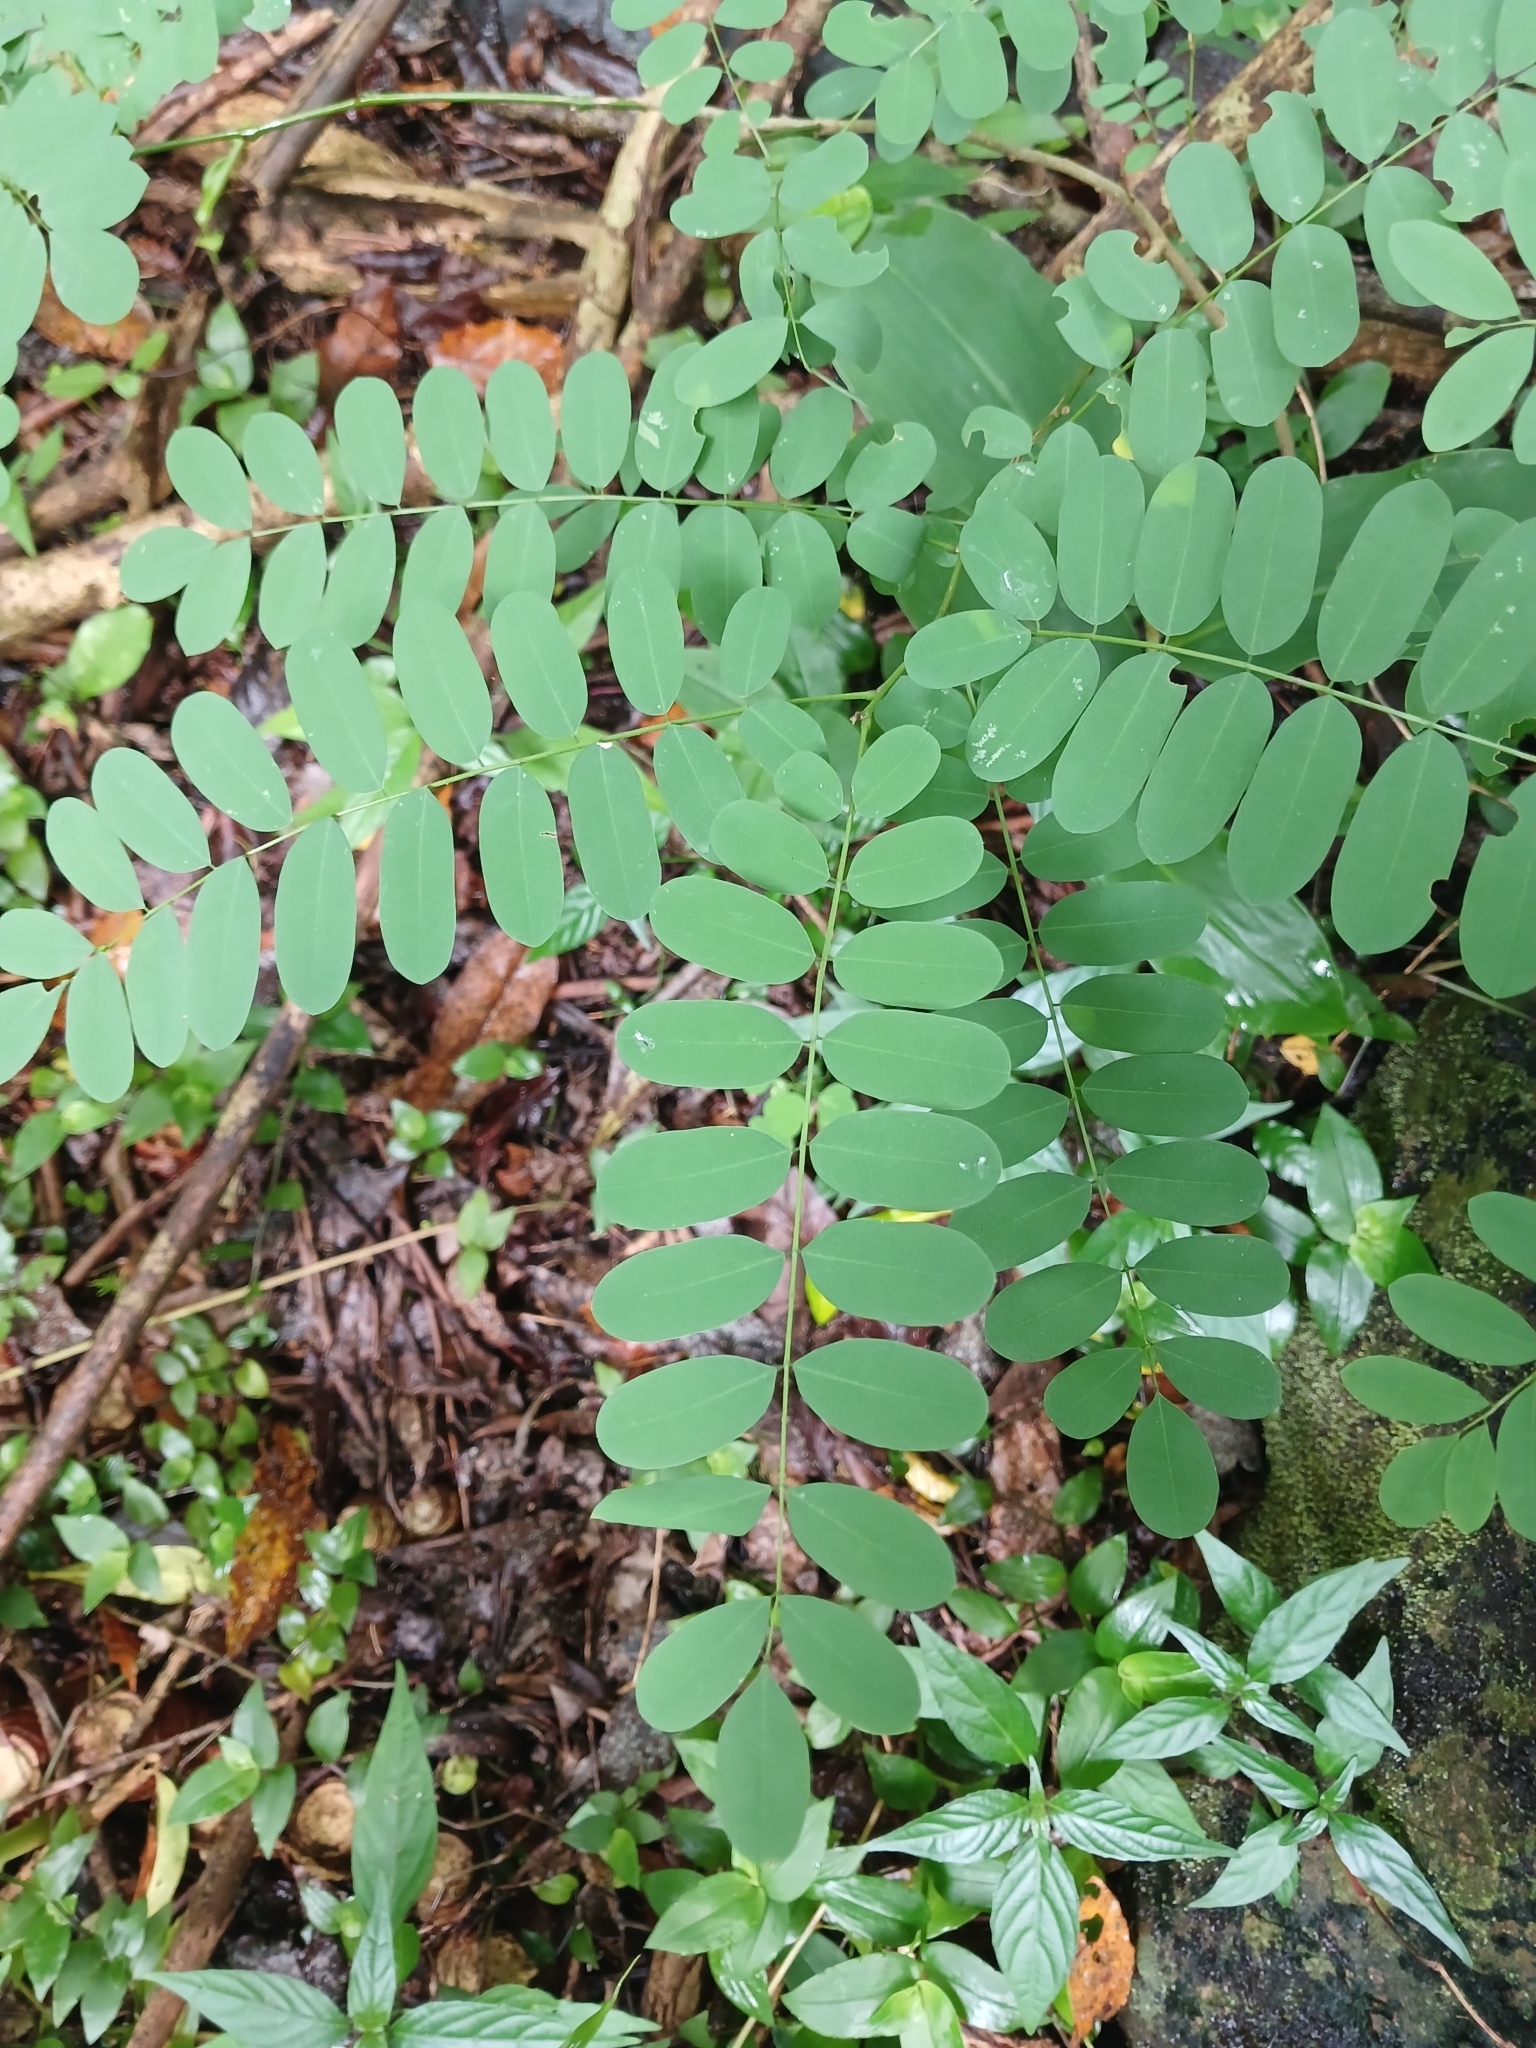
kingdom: Plantae
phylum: Tracheophyta
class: Magnoliopsida
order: Fabales
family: Fabaceae
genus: Calpurnia
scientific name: Calpurnia aurea
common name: Wild laburnum
